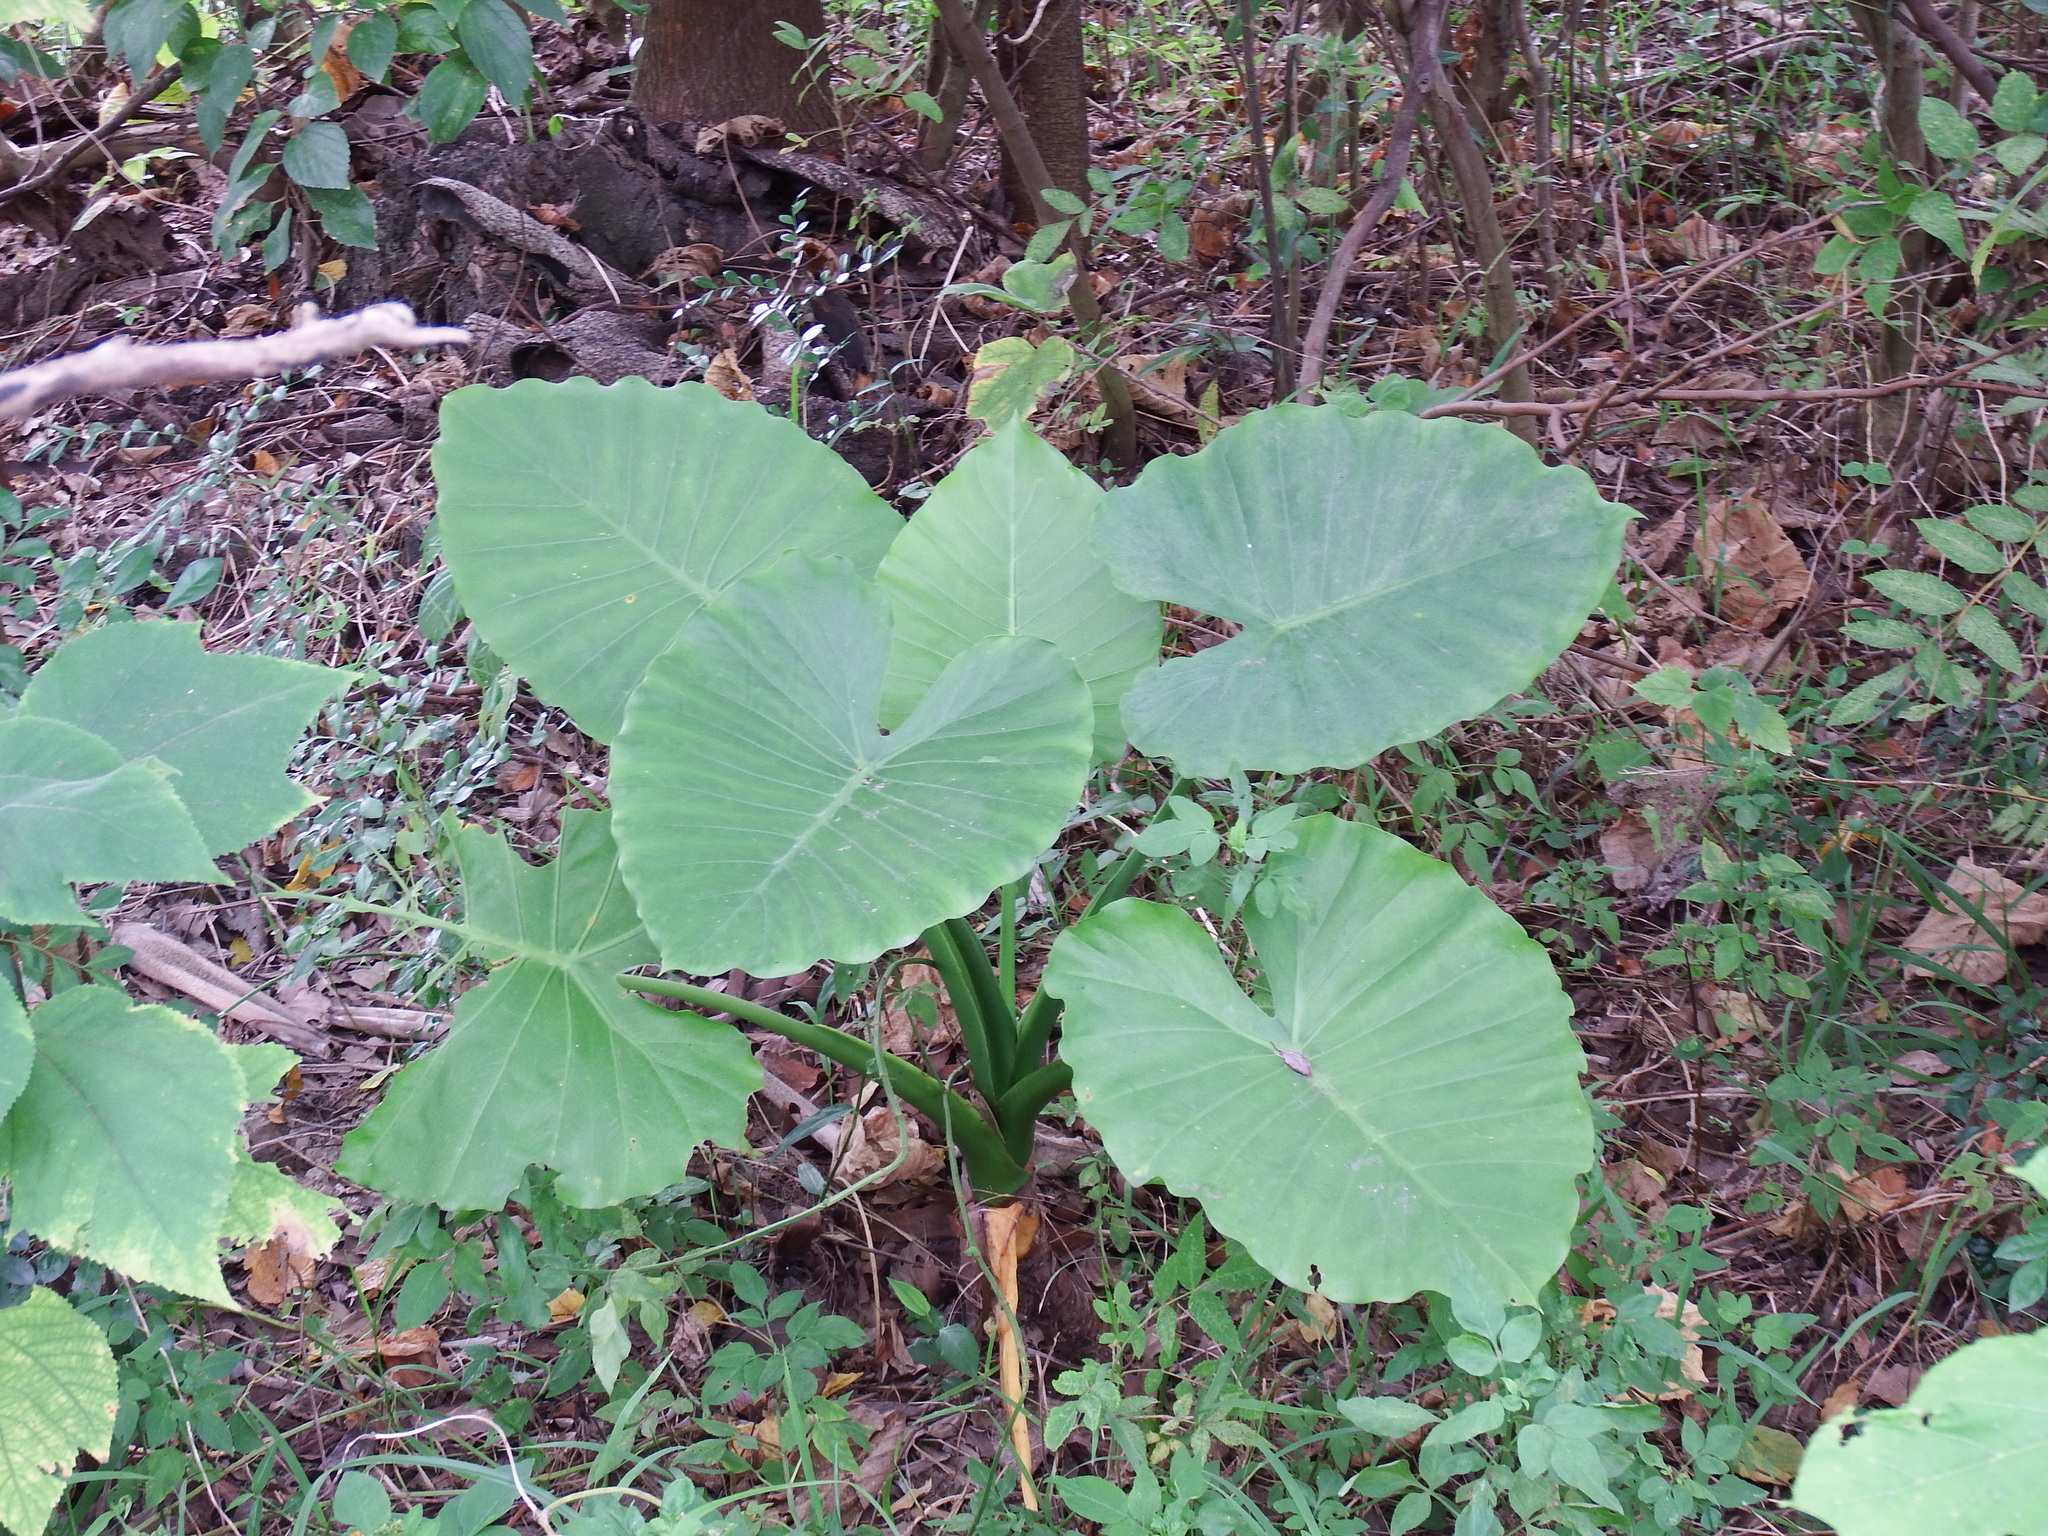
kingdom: Plantae
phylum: Tracheophyta
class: Liliopsida
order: Alismatales
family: Araceae
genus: Alocasia
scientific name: Alocasia odora
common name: Asian taro
